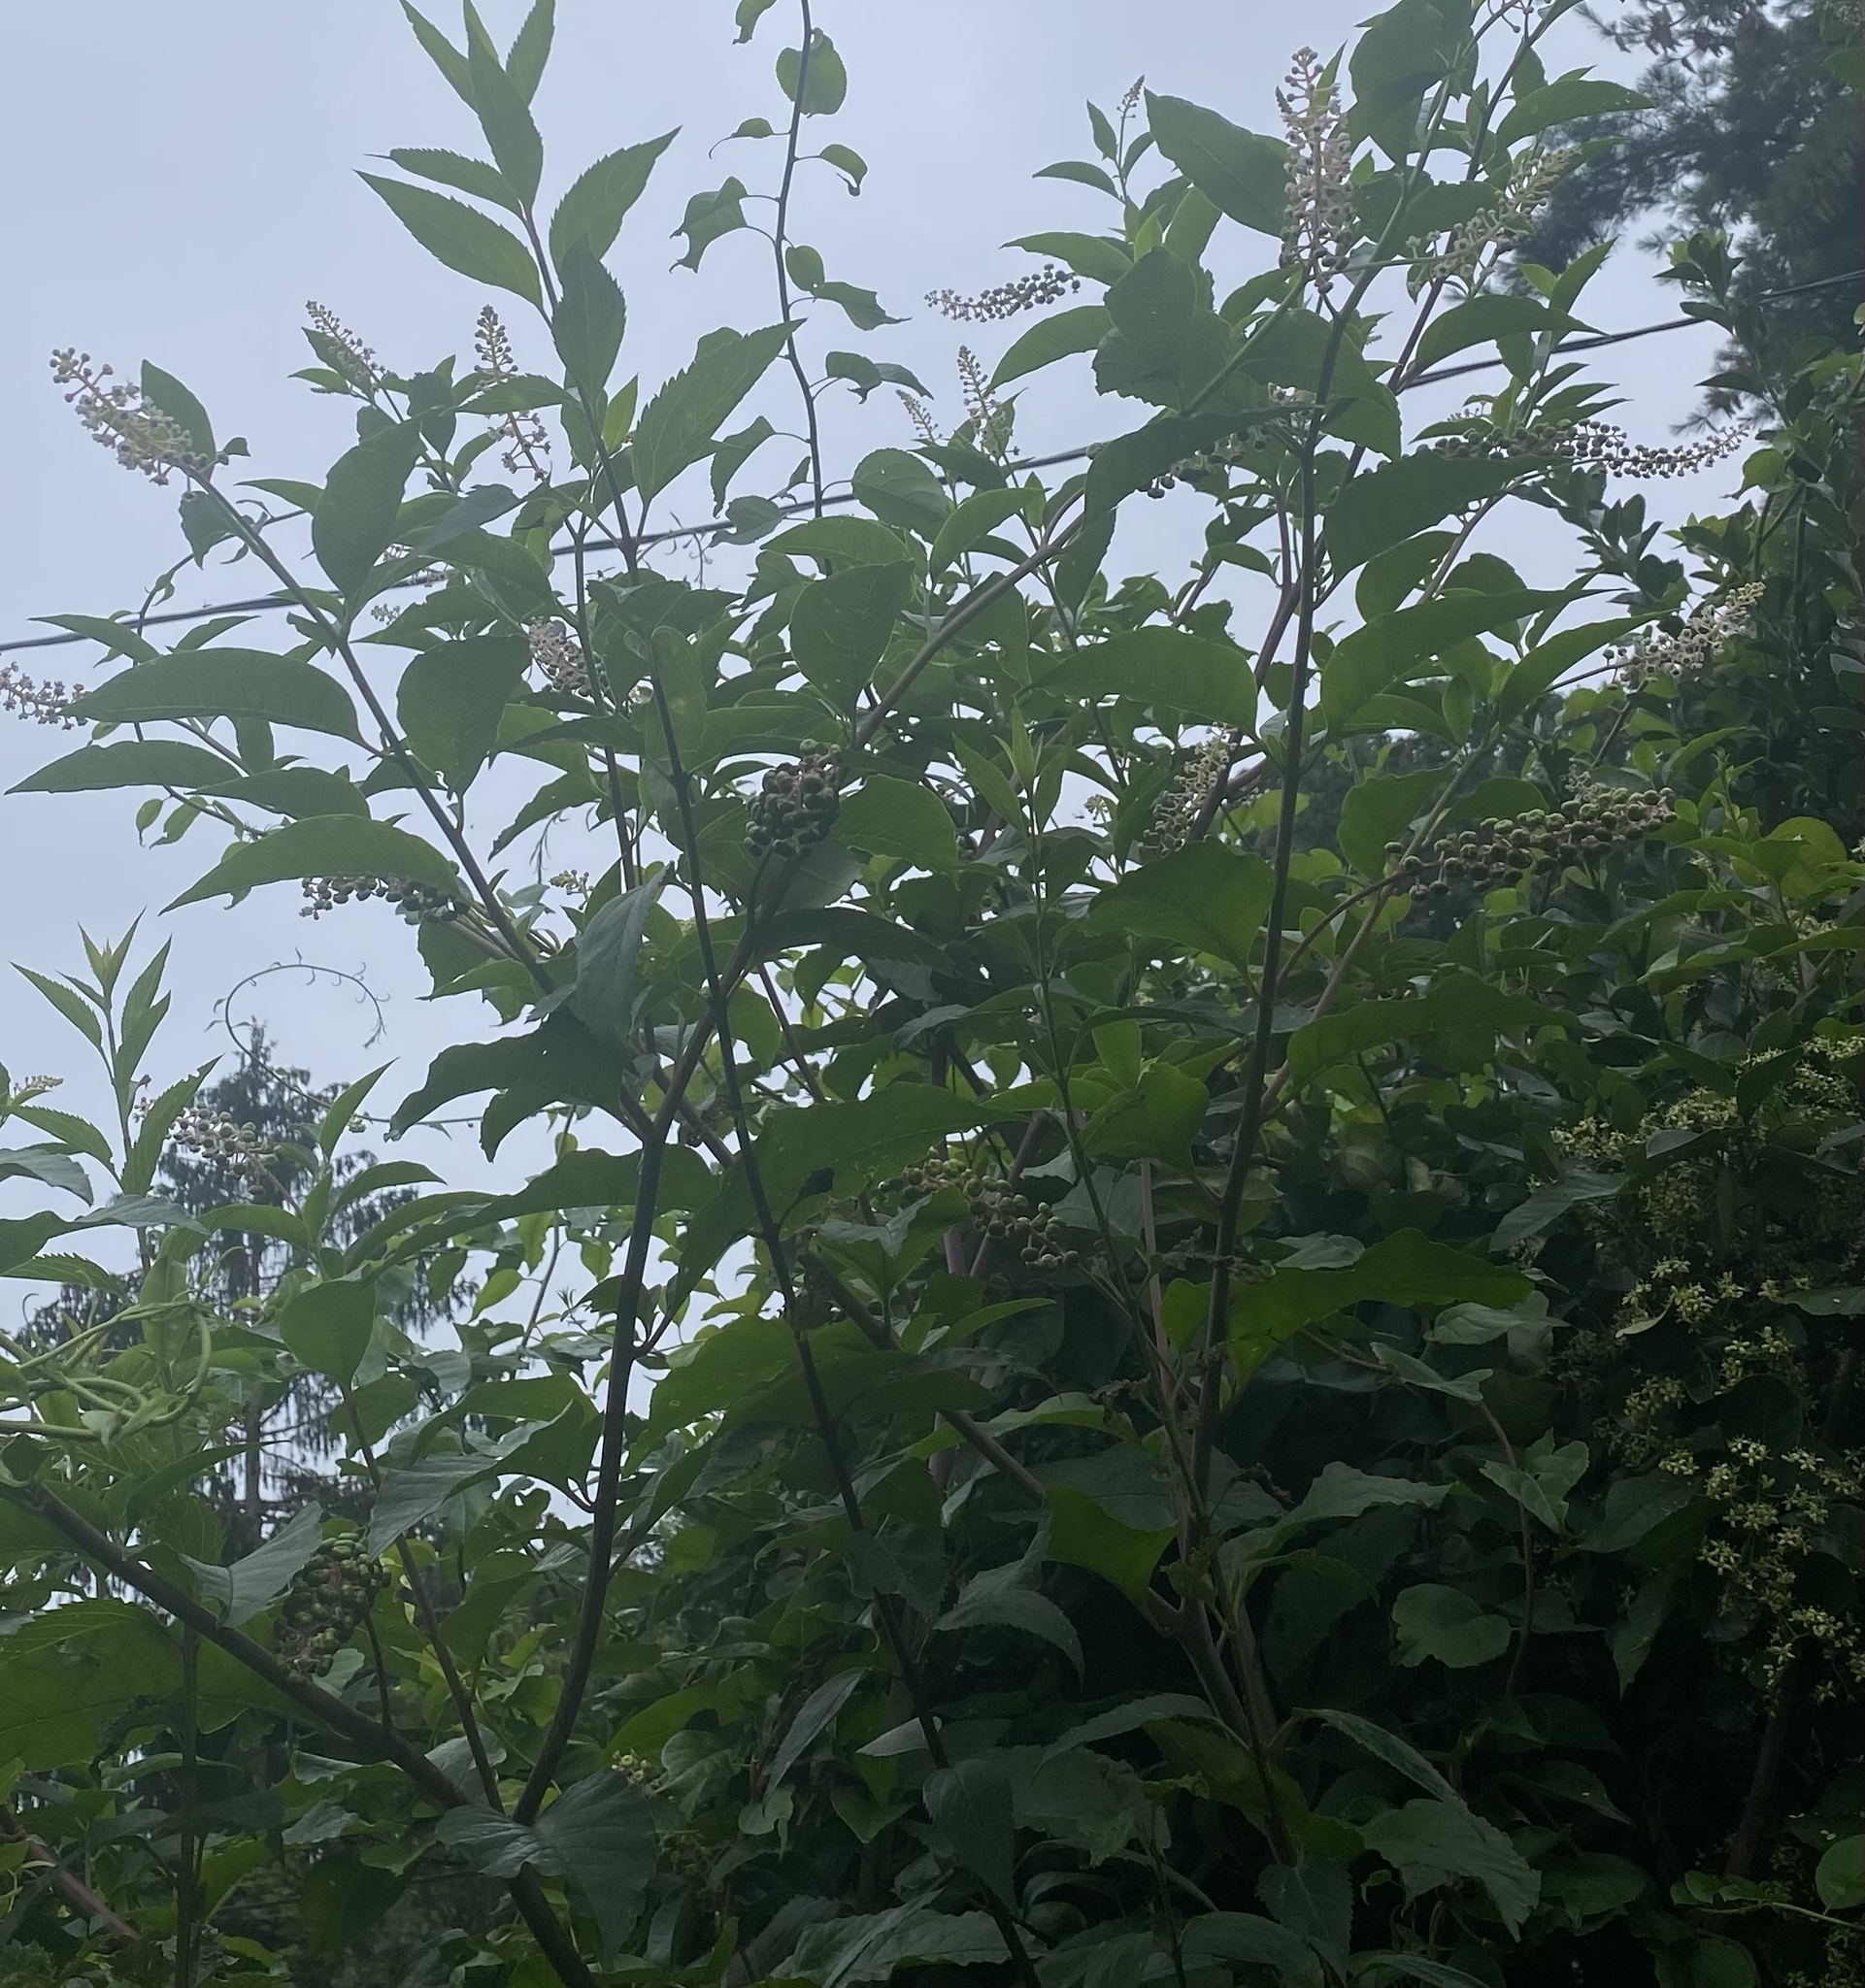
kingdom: Plantae
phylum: Tracheophyta
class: Magnoliopsida
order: Caryophyllales
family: Phytolaccaceae
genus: Phytolacca
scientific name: Phytolacca americana
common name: American pokeweed
